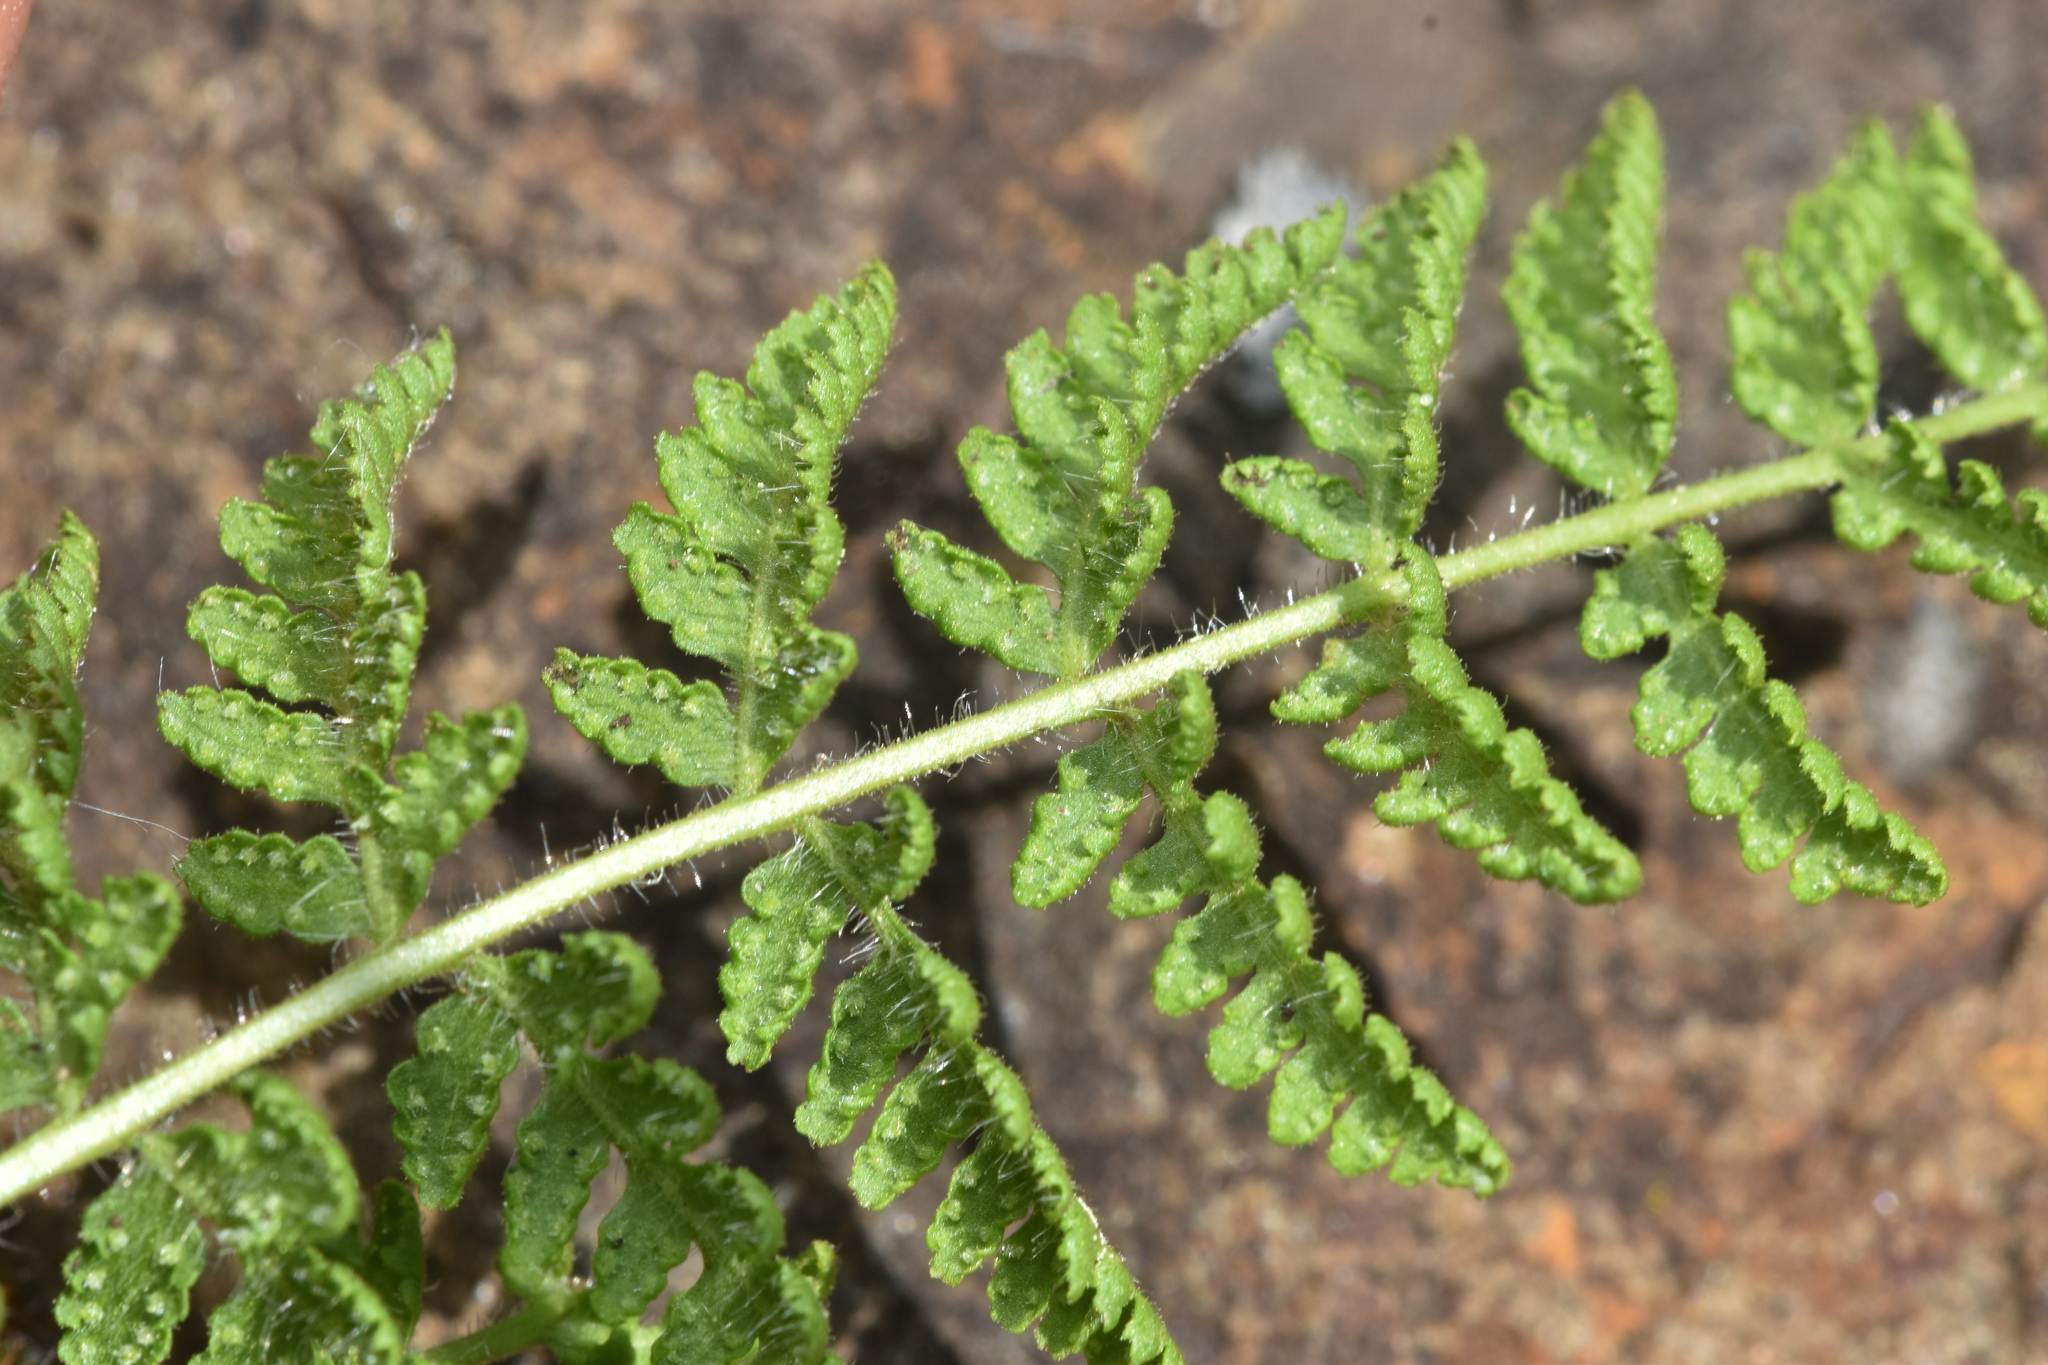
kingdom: Plantae
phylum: Tracheophyta
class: Polypodiopsida
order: Polypodiales
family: Woodsiaceae
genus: Physematium
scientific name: Physematium scopulinum
